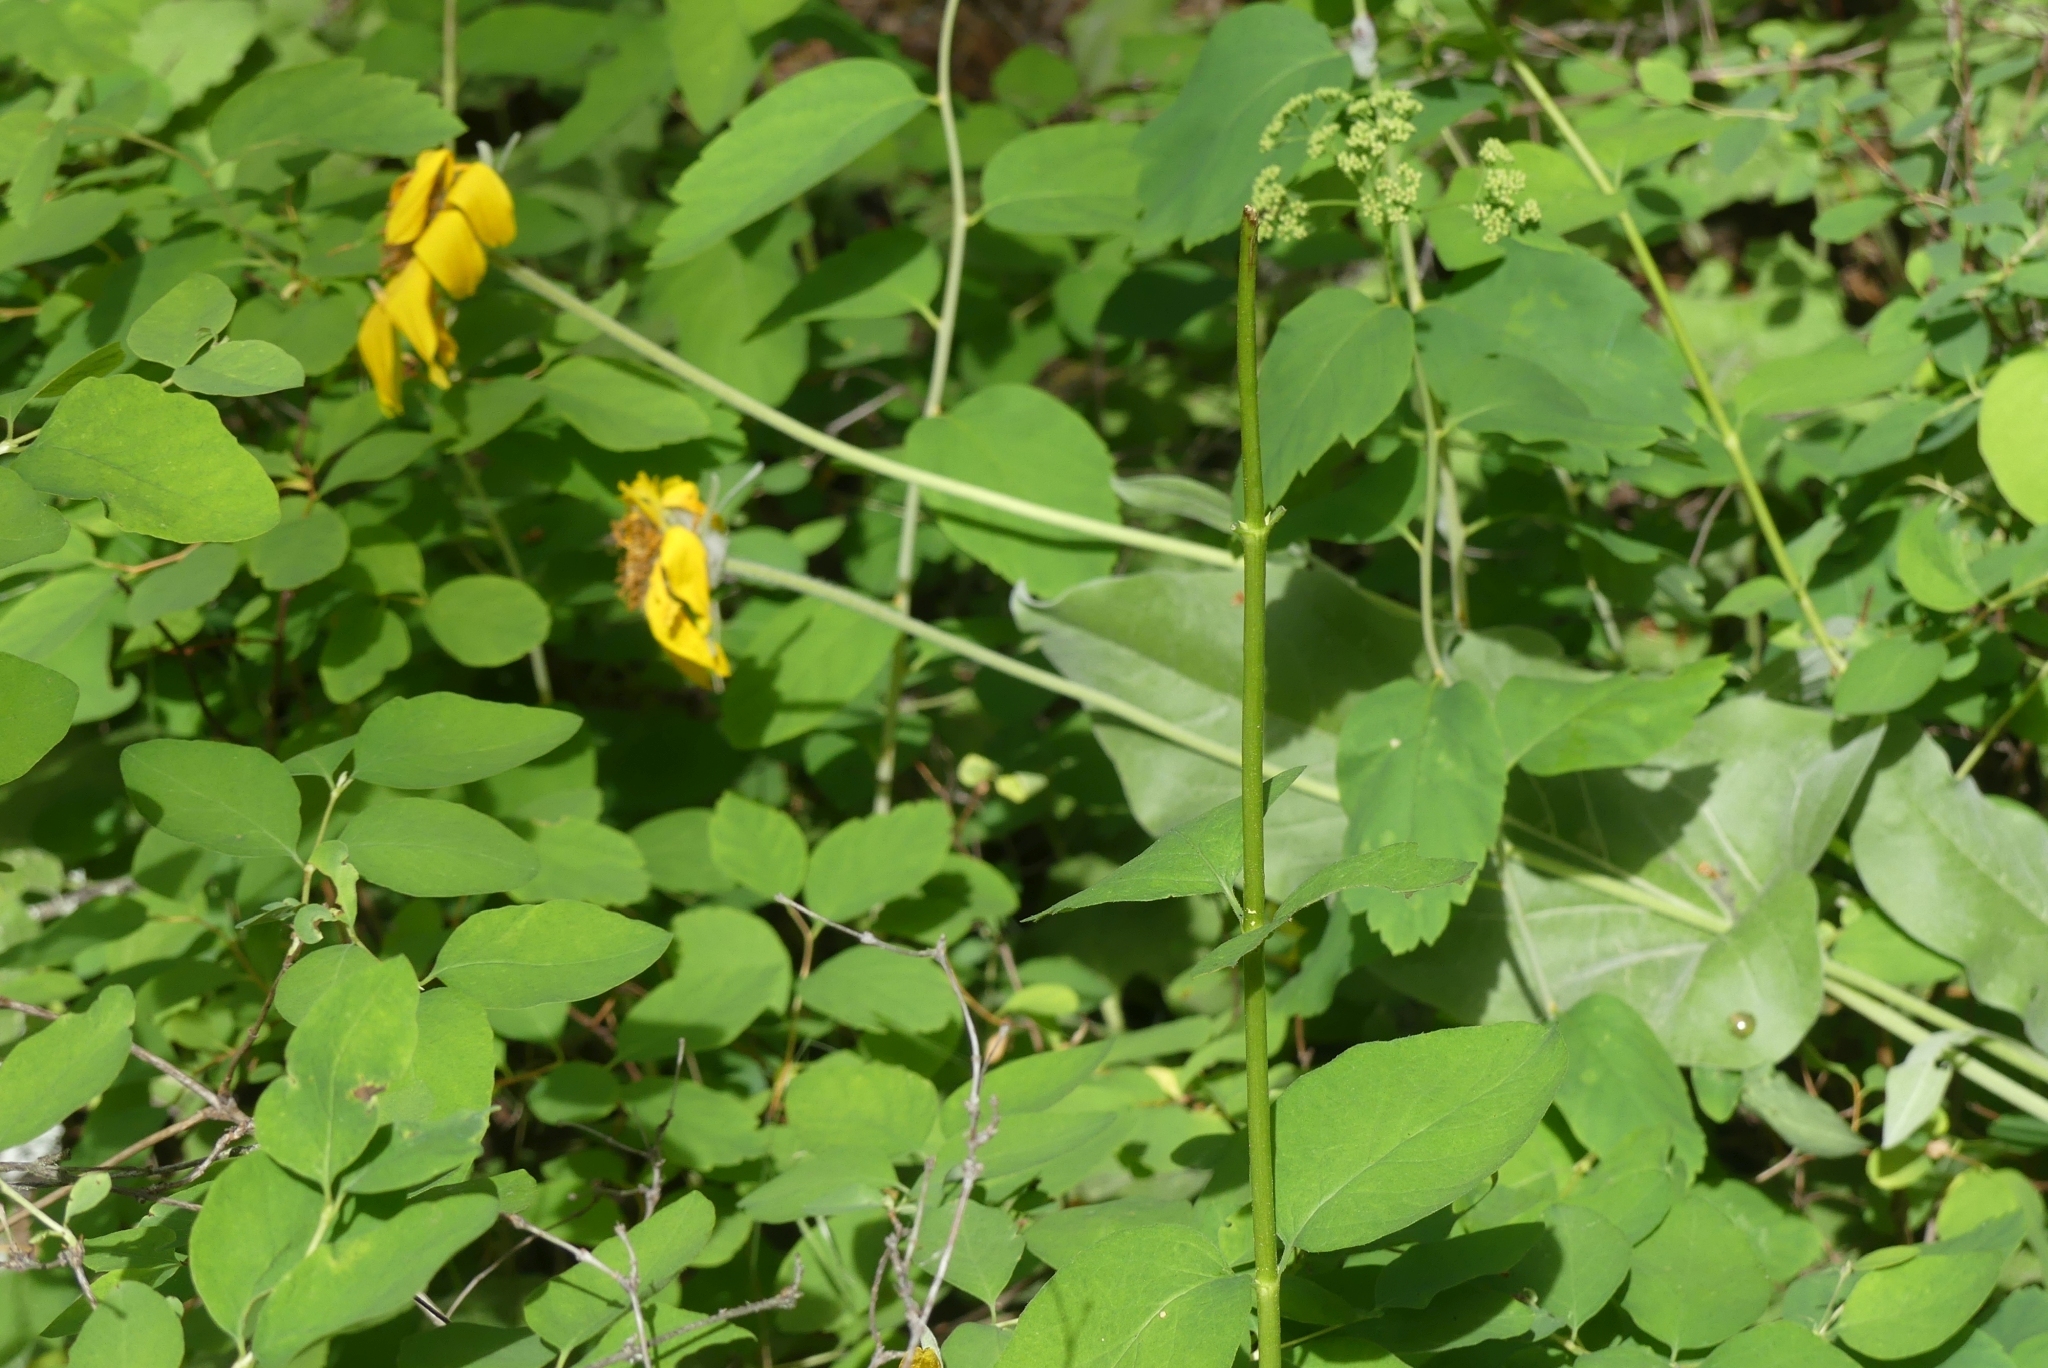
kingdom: Plantae
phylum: Tracheophyta
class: Magnoliopsida
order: Asterales
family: Asteraceae
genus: Wyethia
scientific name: Wyethia sagittata
